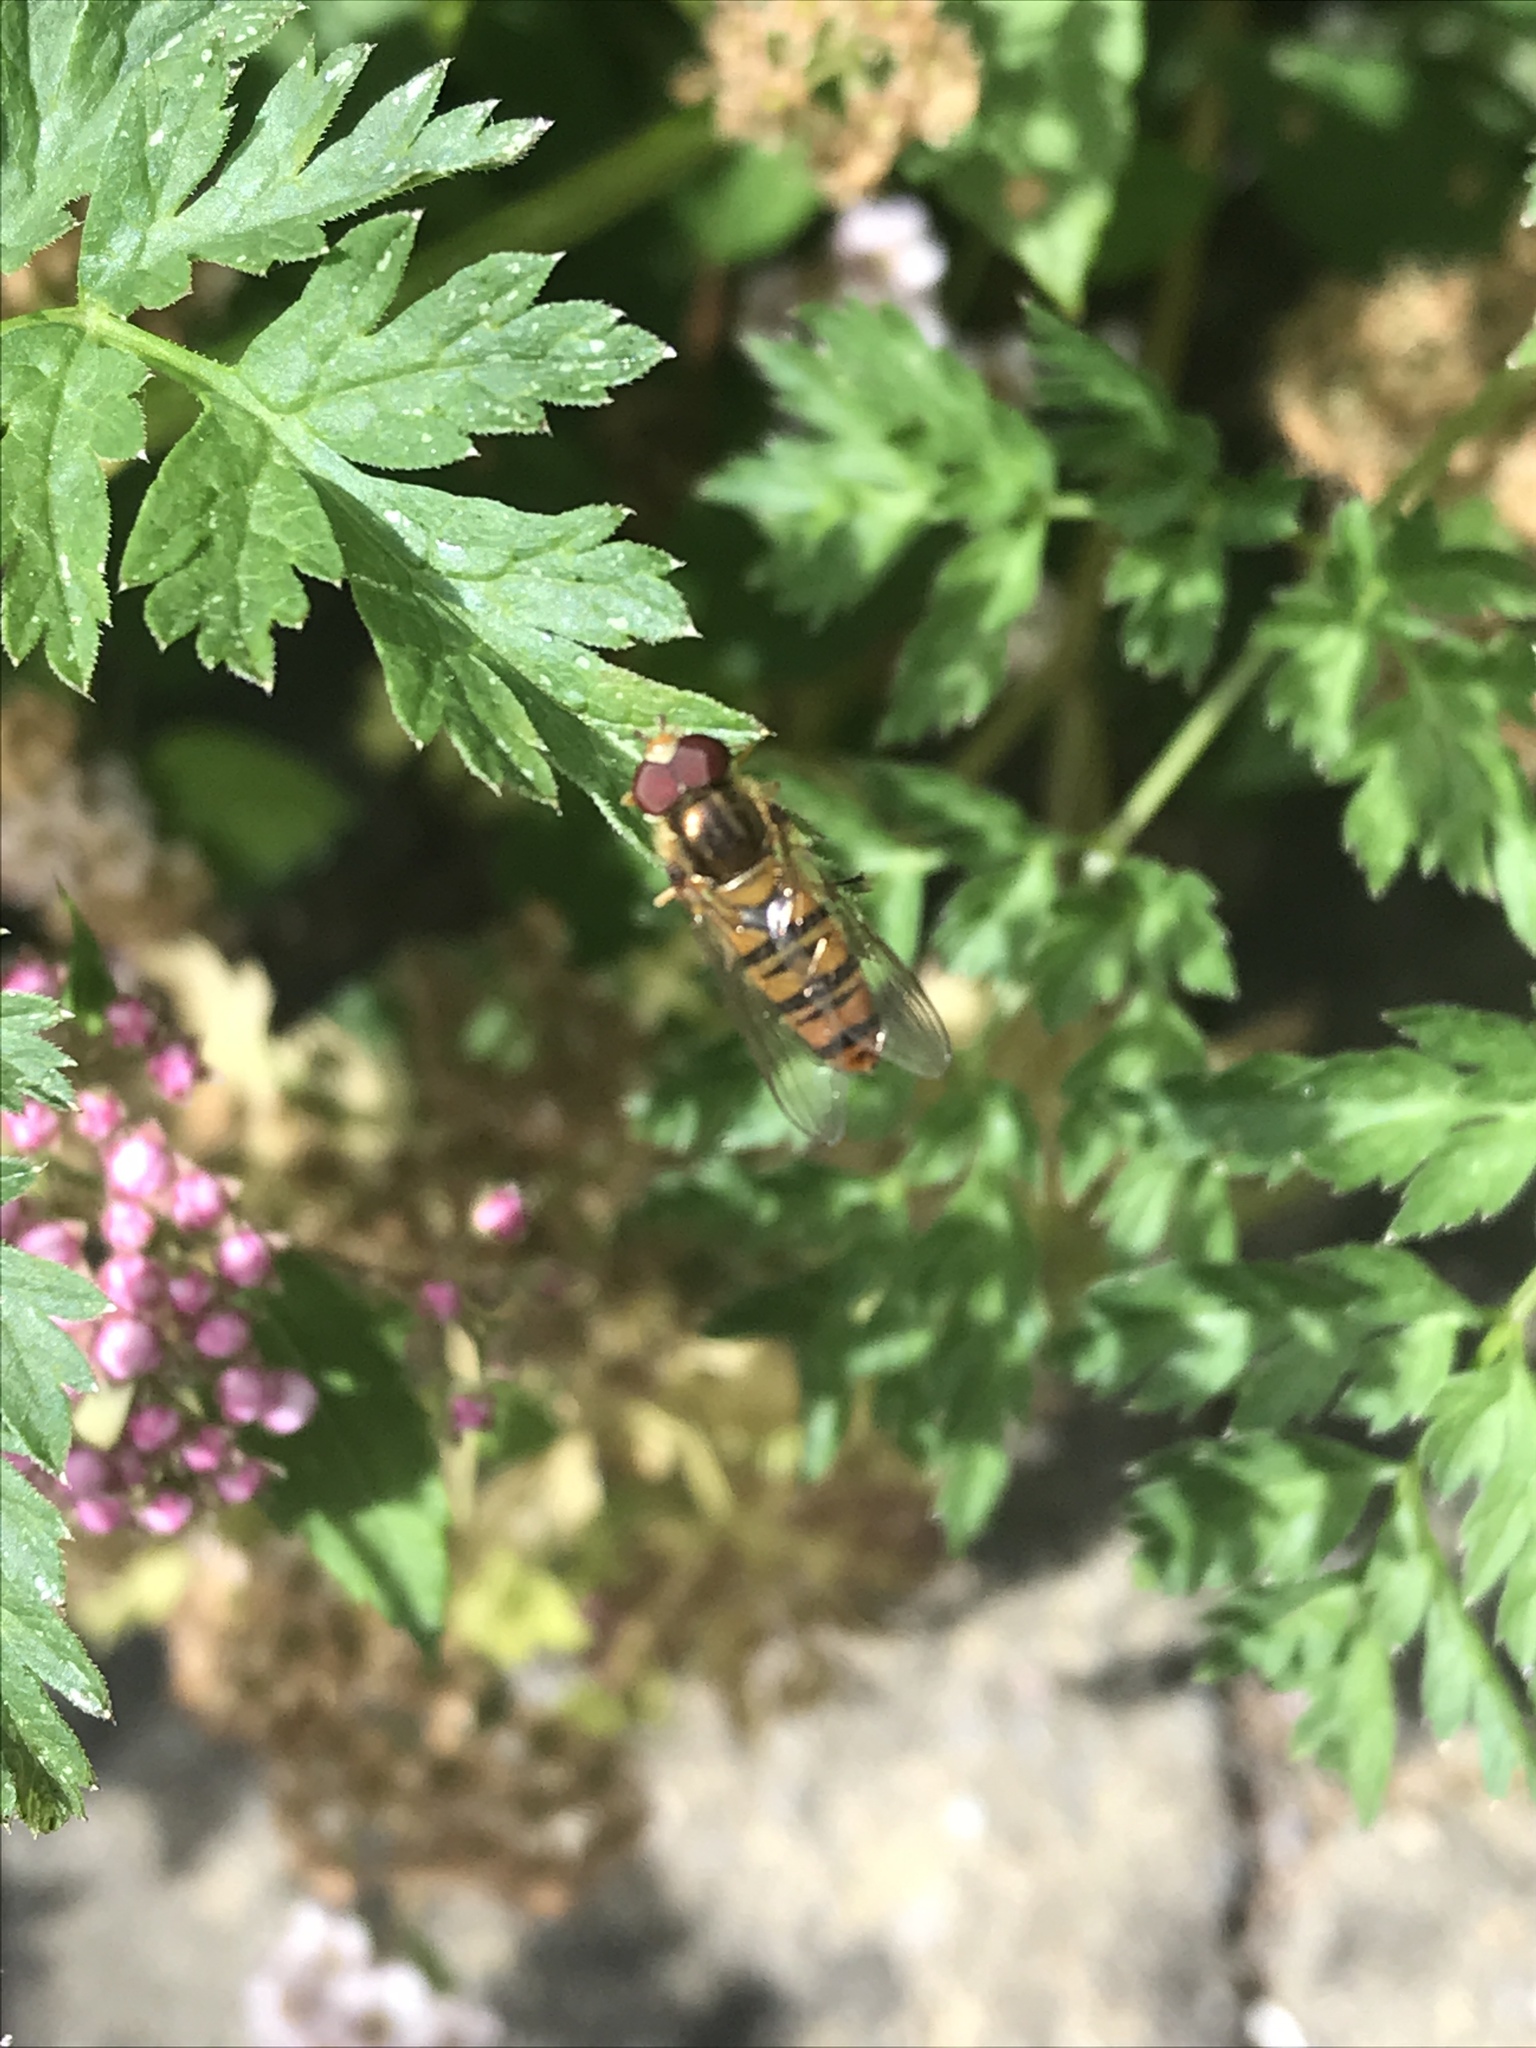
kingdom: Animalia
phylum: Arthropoda
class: Insecta
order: Diptera
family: Syrphidae
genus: Episyrphus
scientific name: Episyrphus balteatus
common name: Marmalade hoverfly
